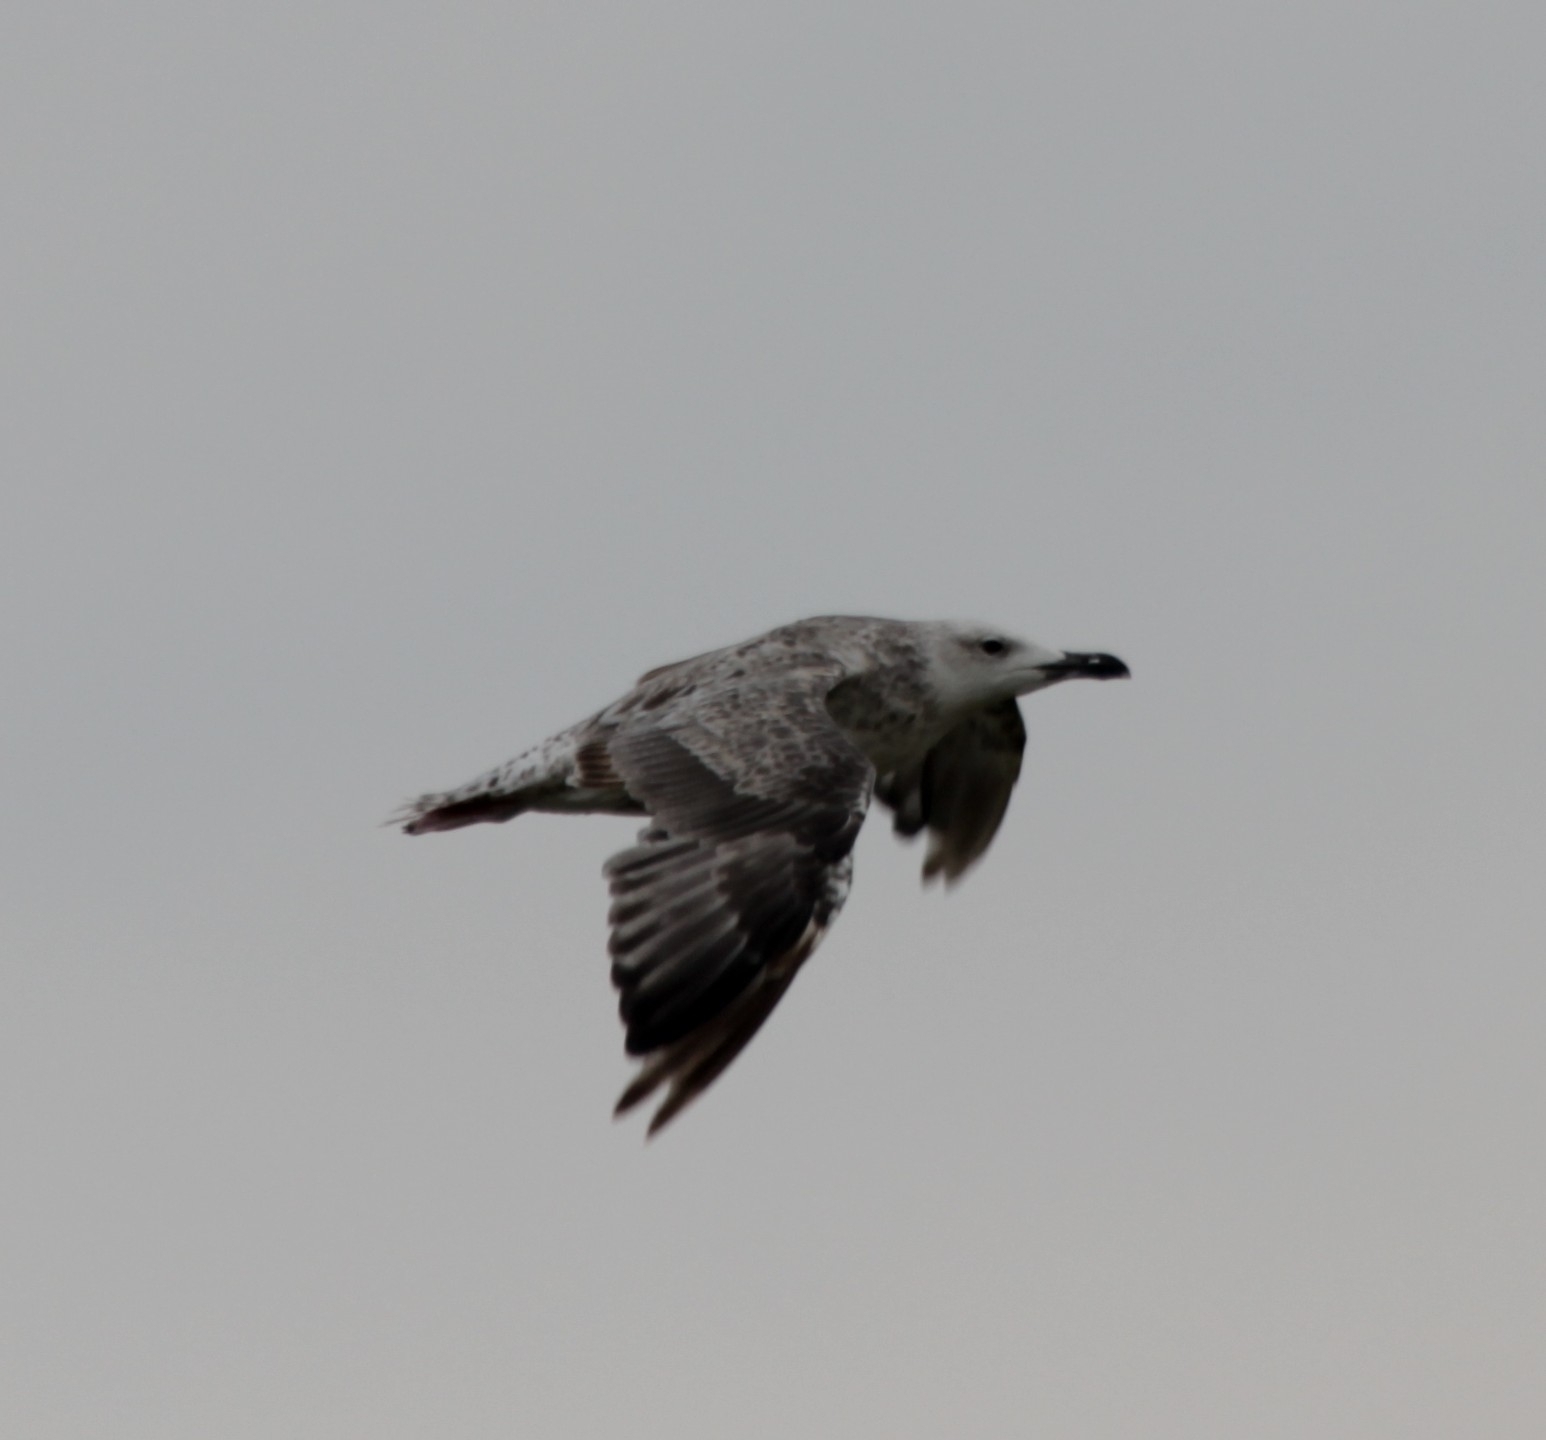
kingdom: Animalia
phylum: Chordata
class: Aves
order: Charadriiformes
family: Laridae
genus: Larus
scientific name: Larus michahellis
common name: Yellow-legged gull
